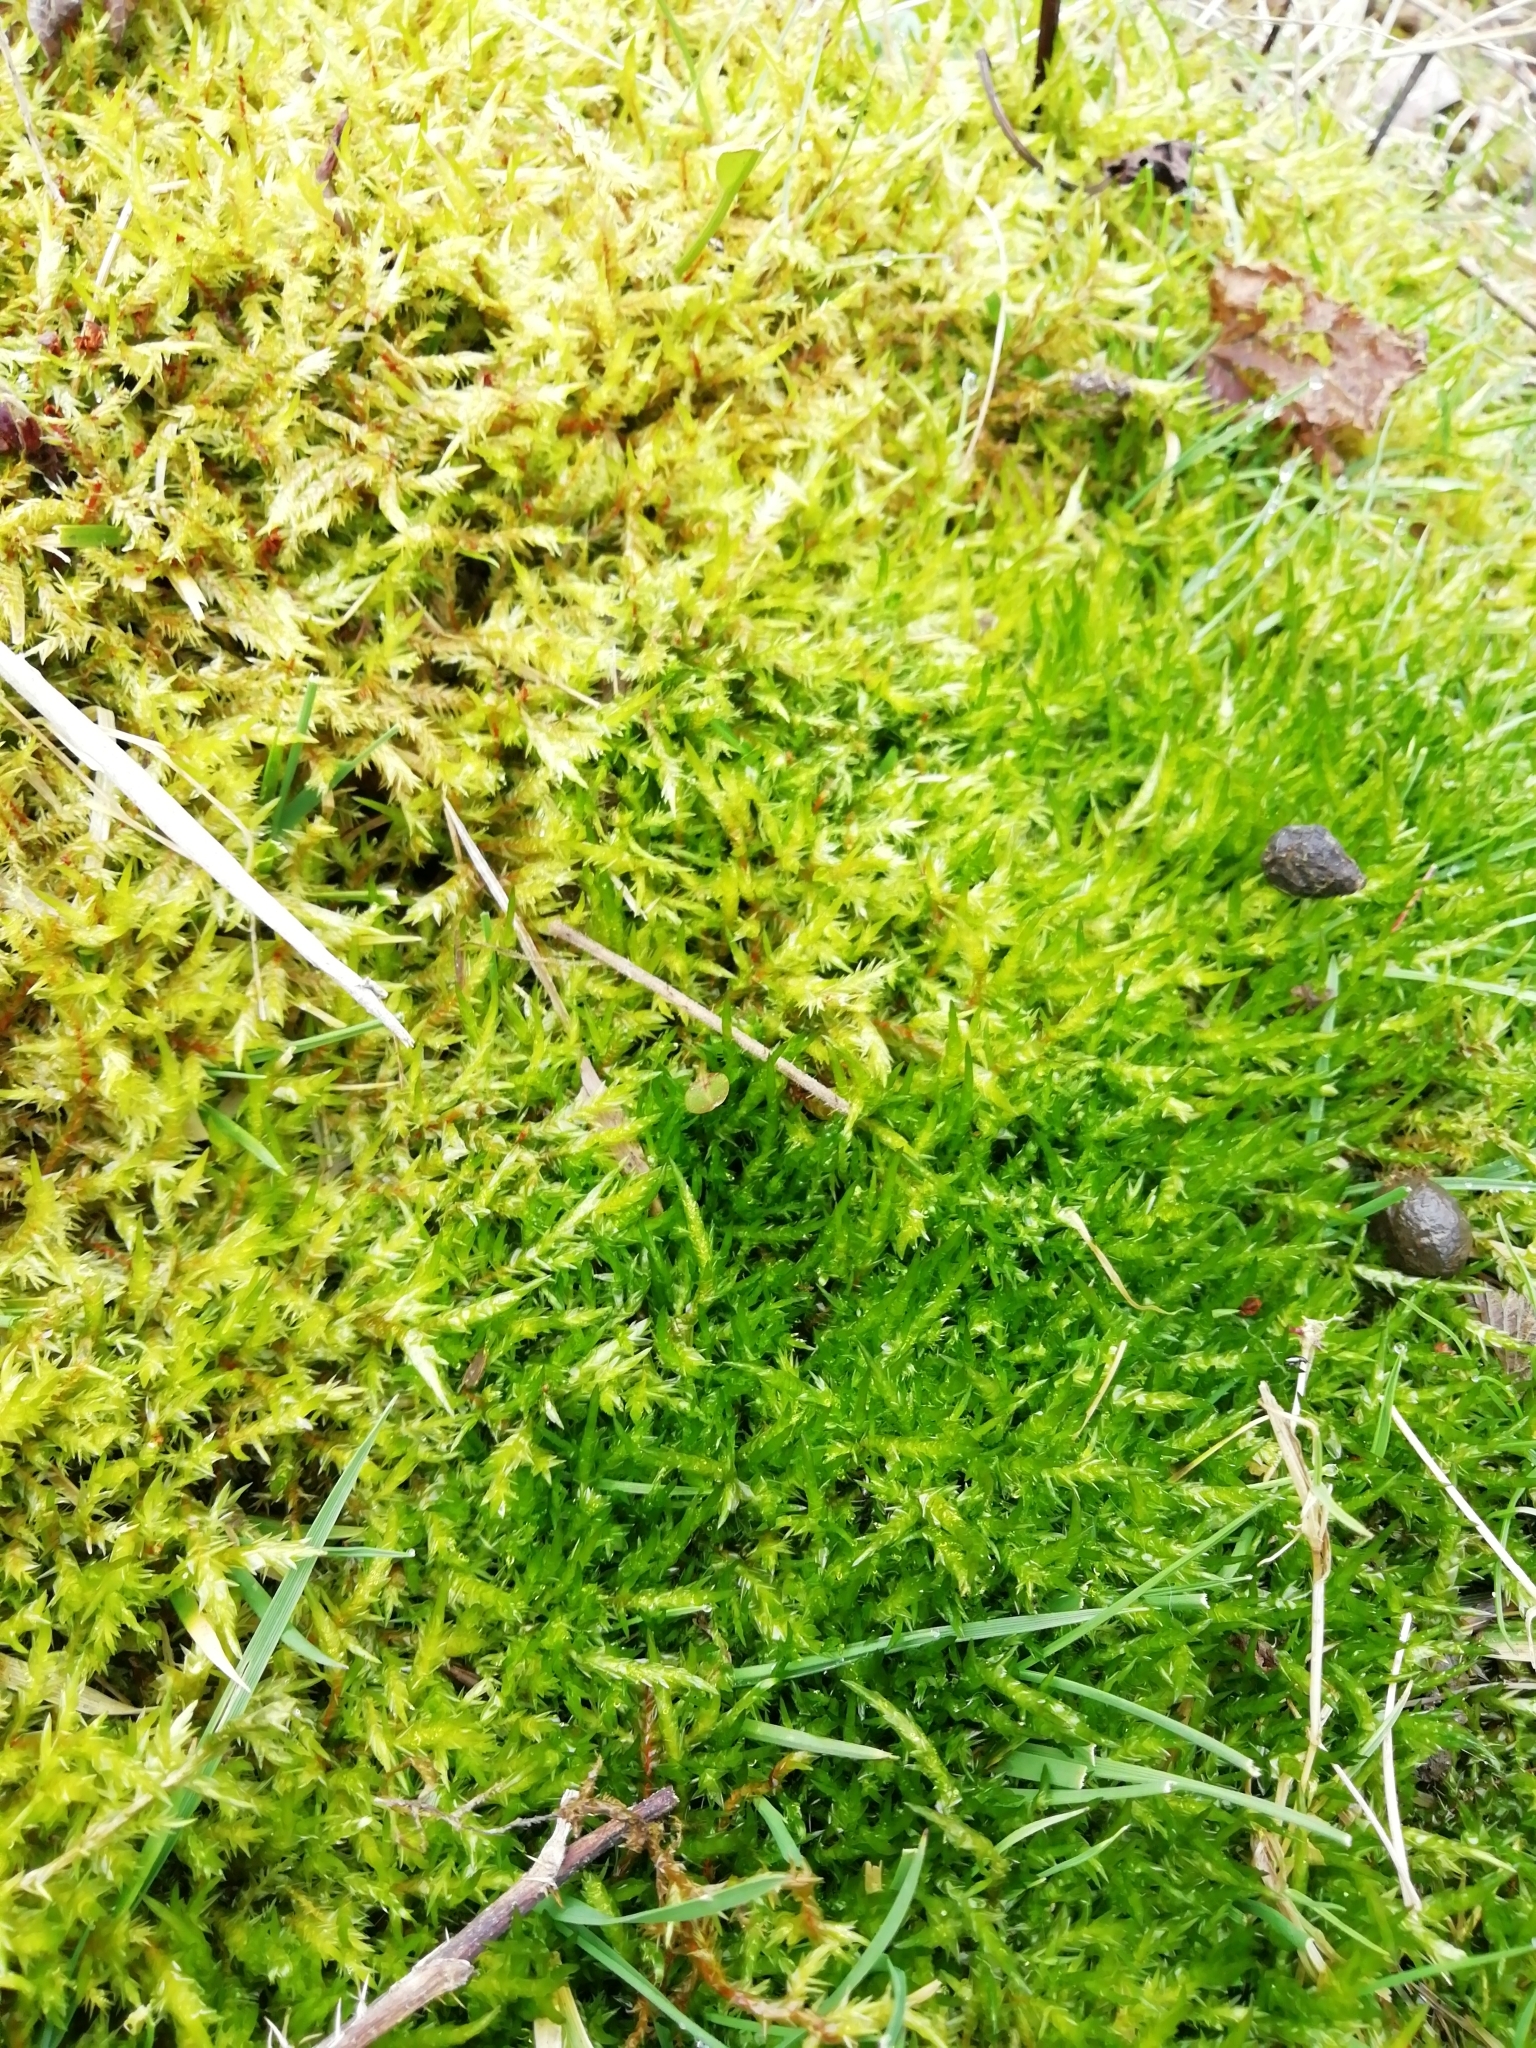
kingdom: Plantae
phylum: Bryophyta
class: Bryopsida
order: Hypnales
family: Pylaisiaceae
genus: Calliergonella
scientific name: Calliergonella cuspidata
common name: Common large wetland moss
